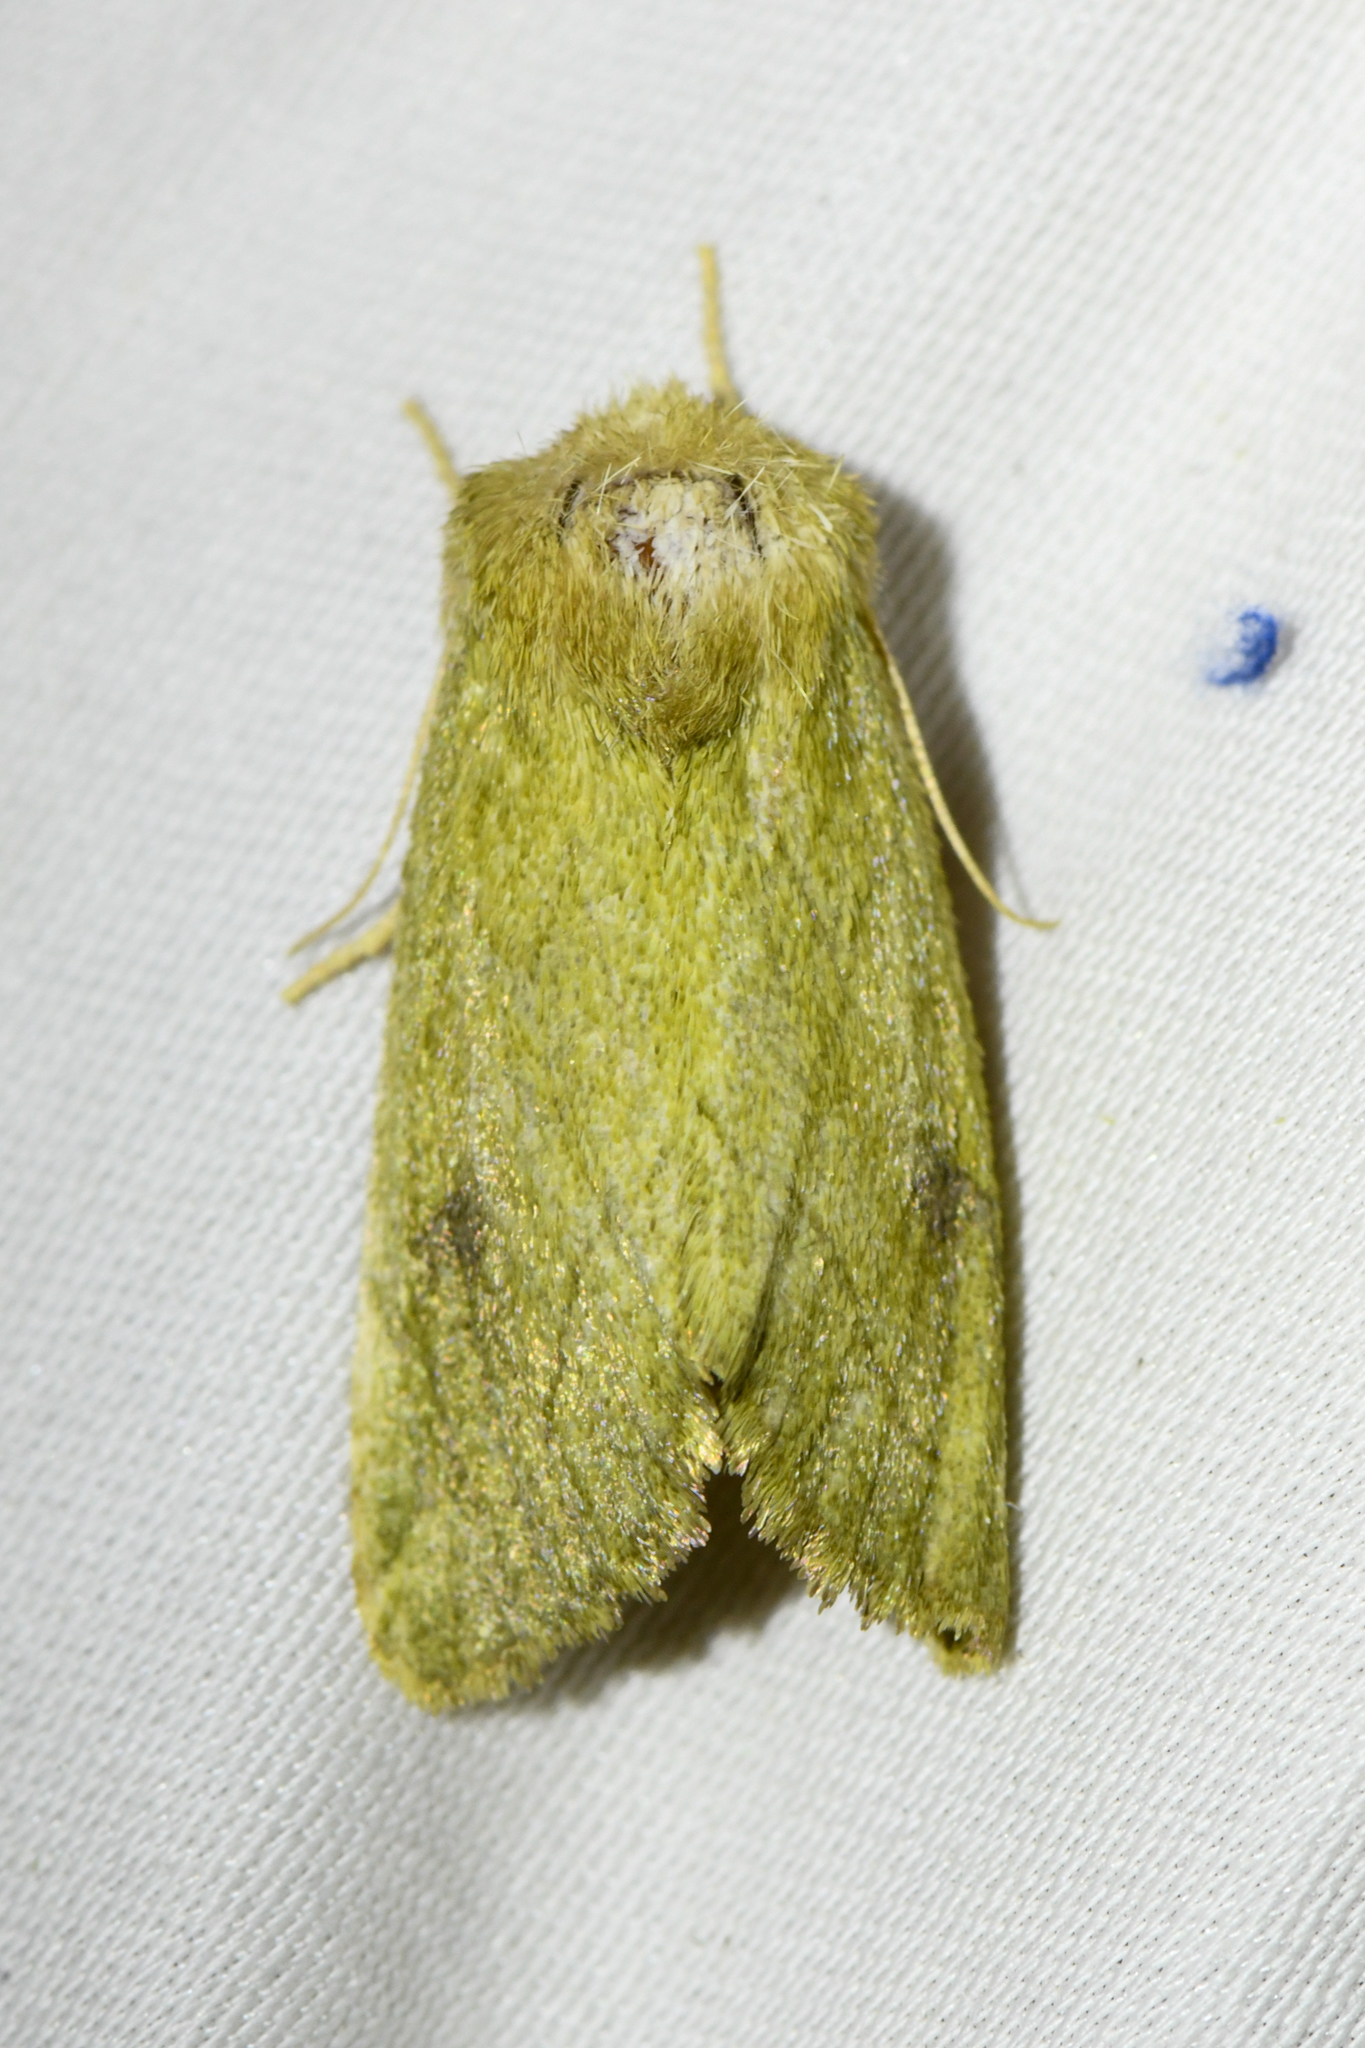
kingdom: Animalia
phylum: Arthropoda
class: Insecta
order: Lepidoptera
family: Noctuidae
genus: Zotheca
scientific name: Zotheca tranquilla
